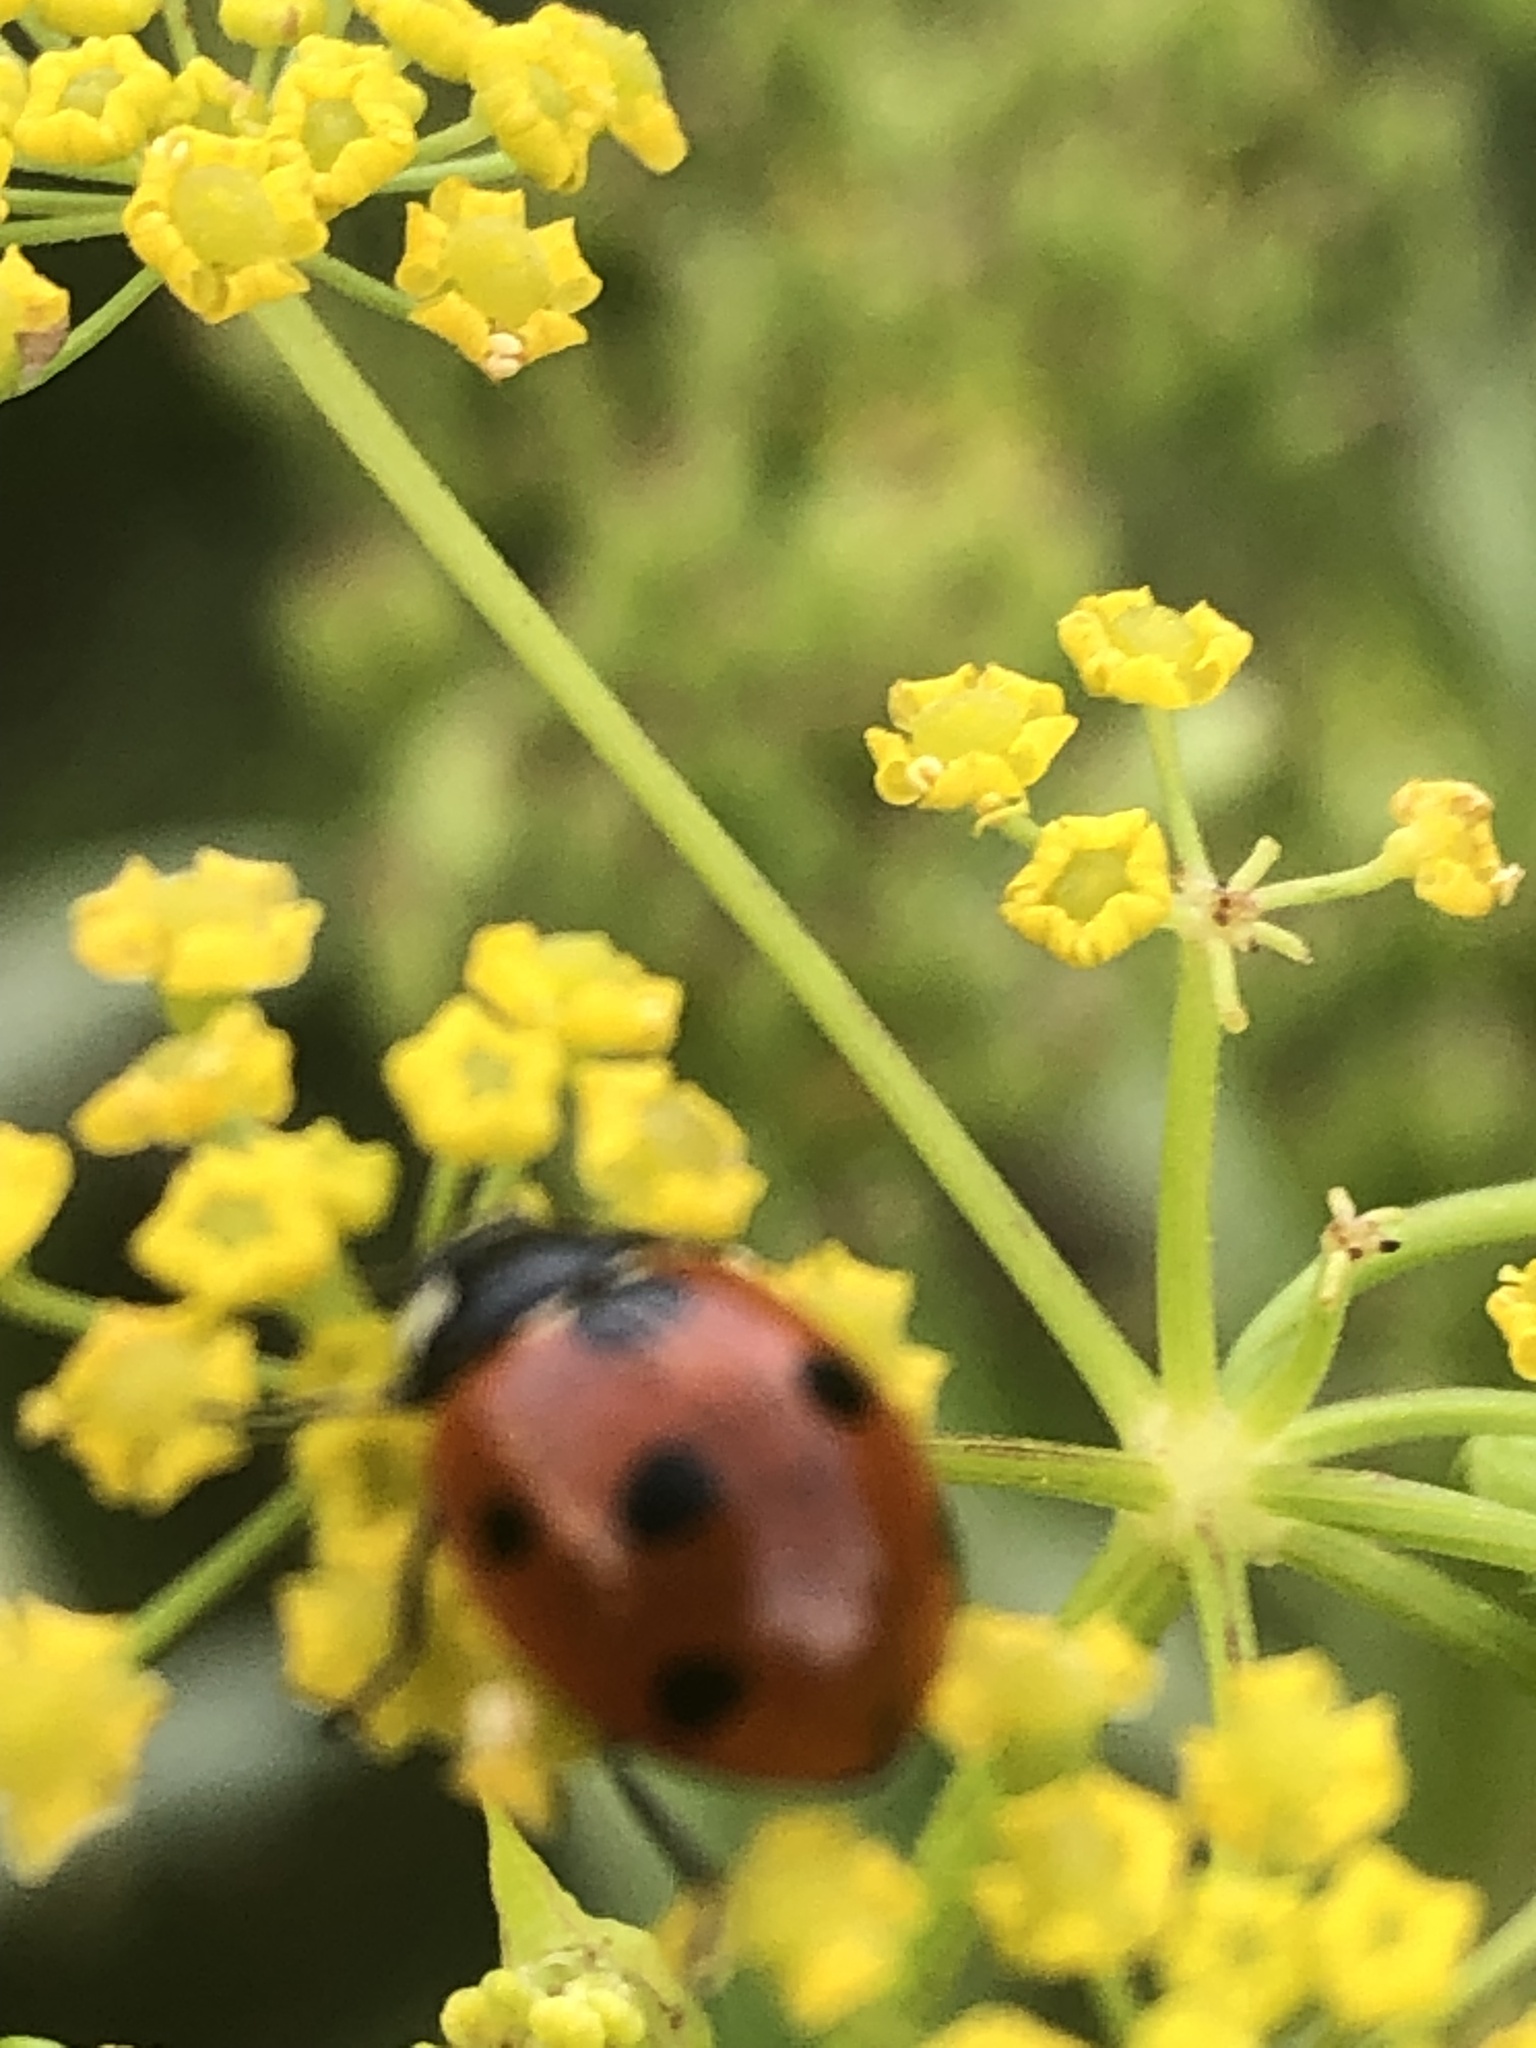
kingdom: Animalia
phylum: Arthropoda
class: Insecta
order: Coleoptera
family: Coccinellidae
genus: Coccinella
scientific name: Coccinella septempunctata
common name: Sevenspotted lady beetle
